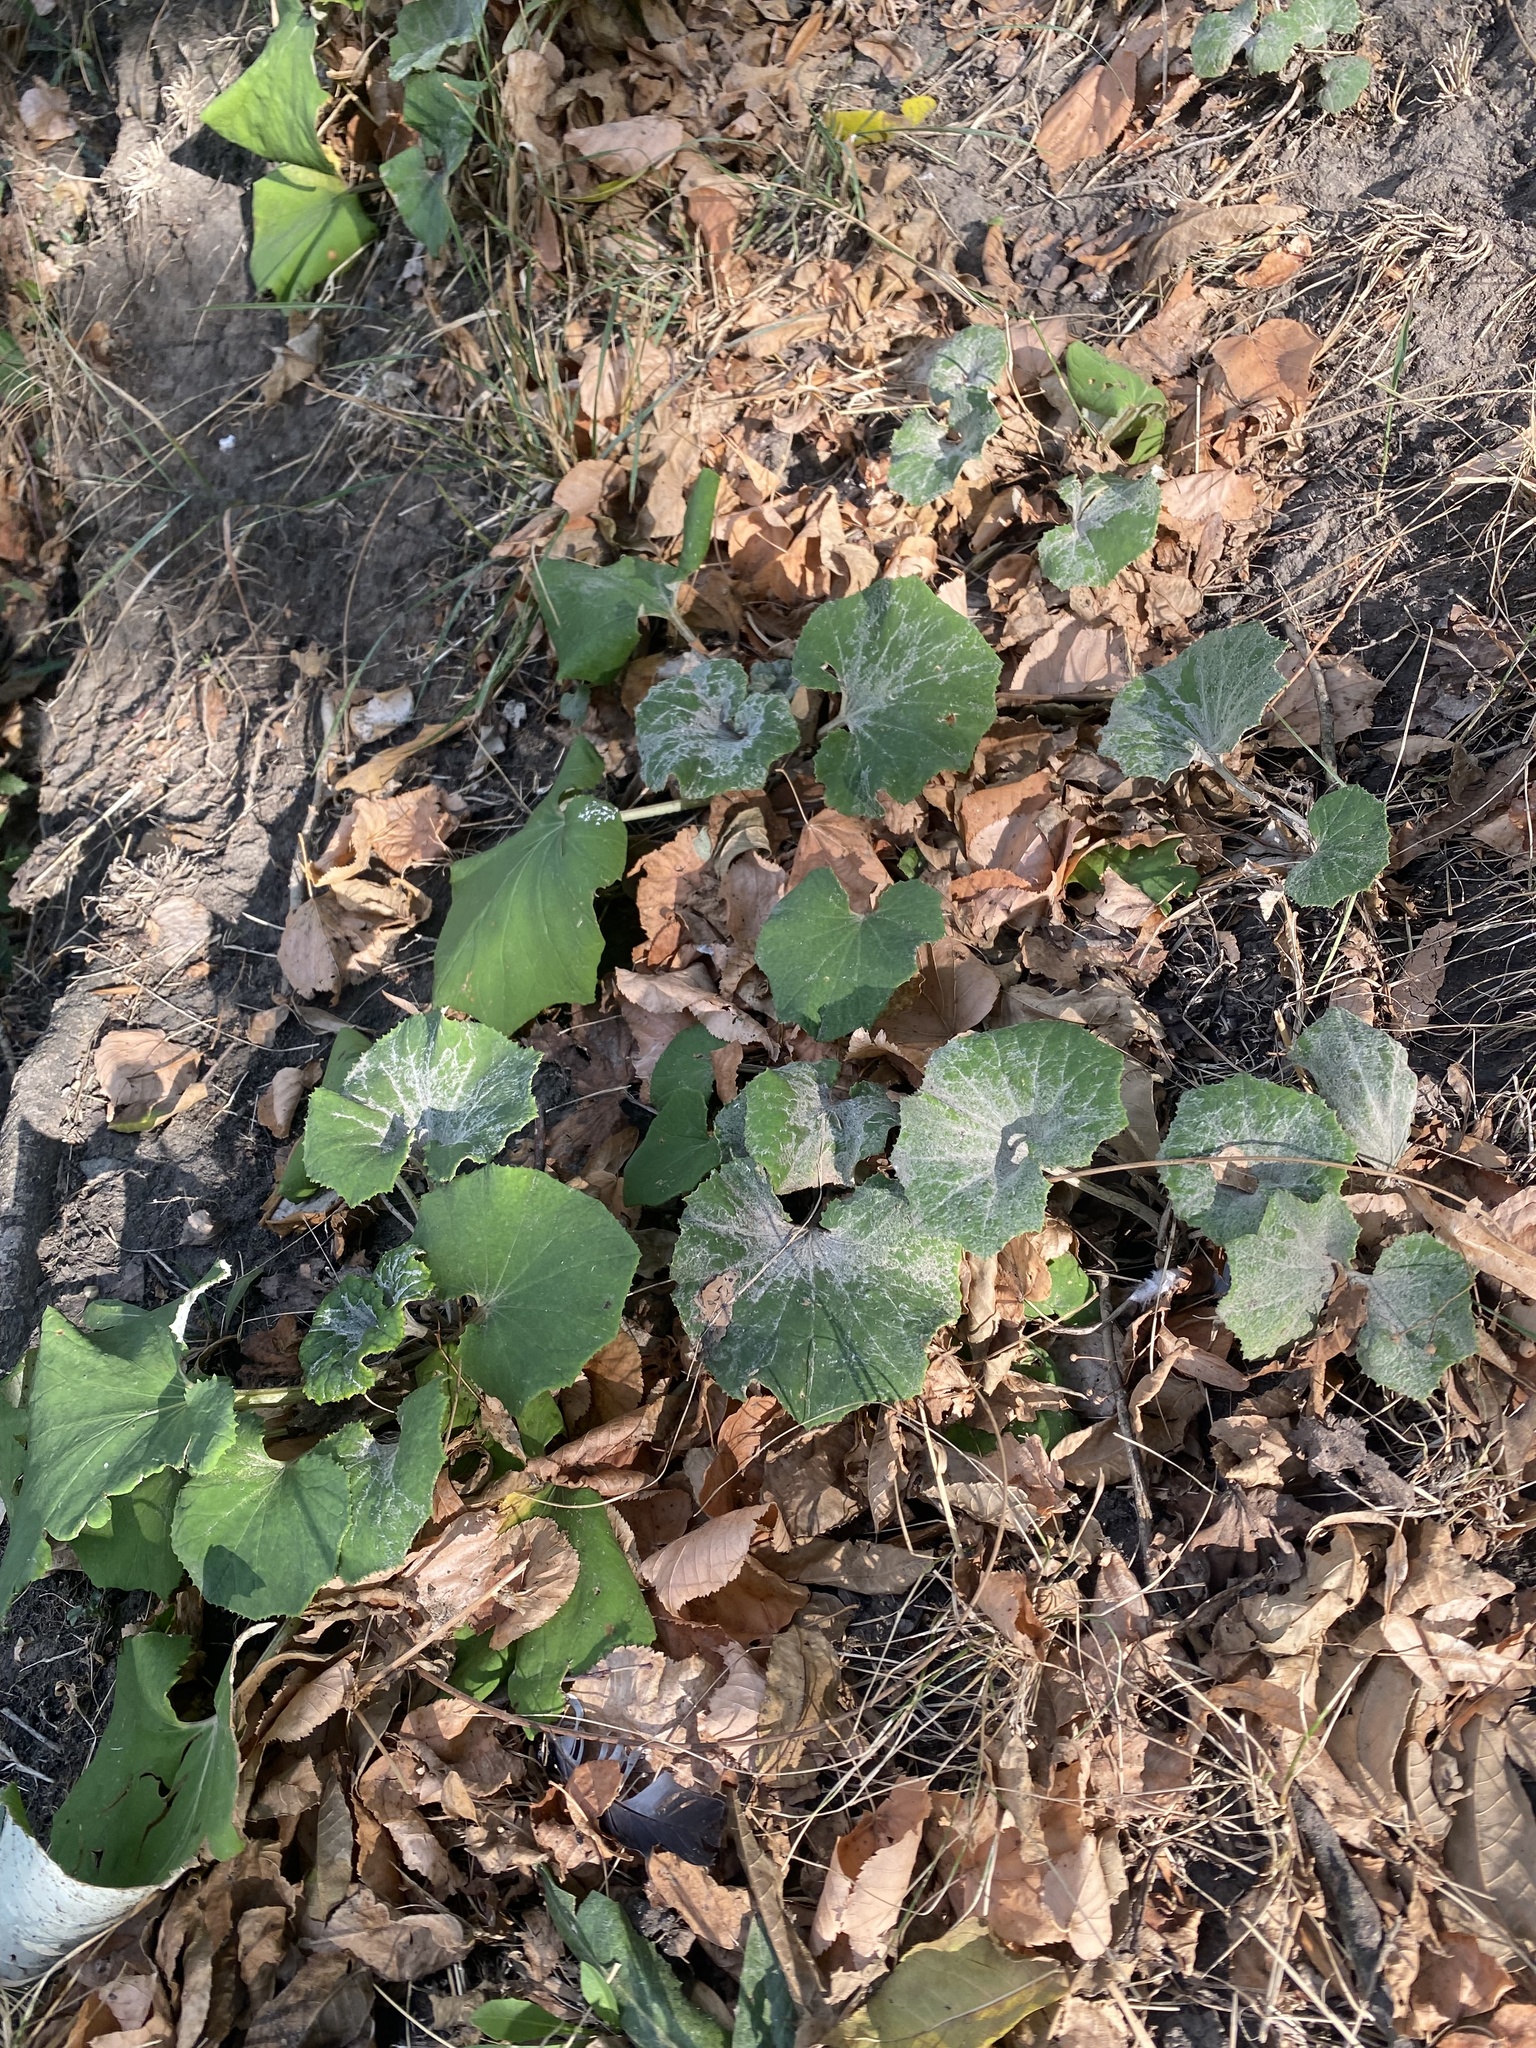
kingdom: Plantae
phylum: Tracheophyta
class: Magnoliopsida
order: Asterales
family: Asteraceae
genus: Tussilago
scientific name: Tussilago farfara
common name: Coltsfoot
